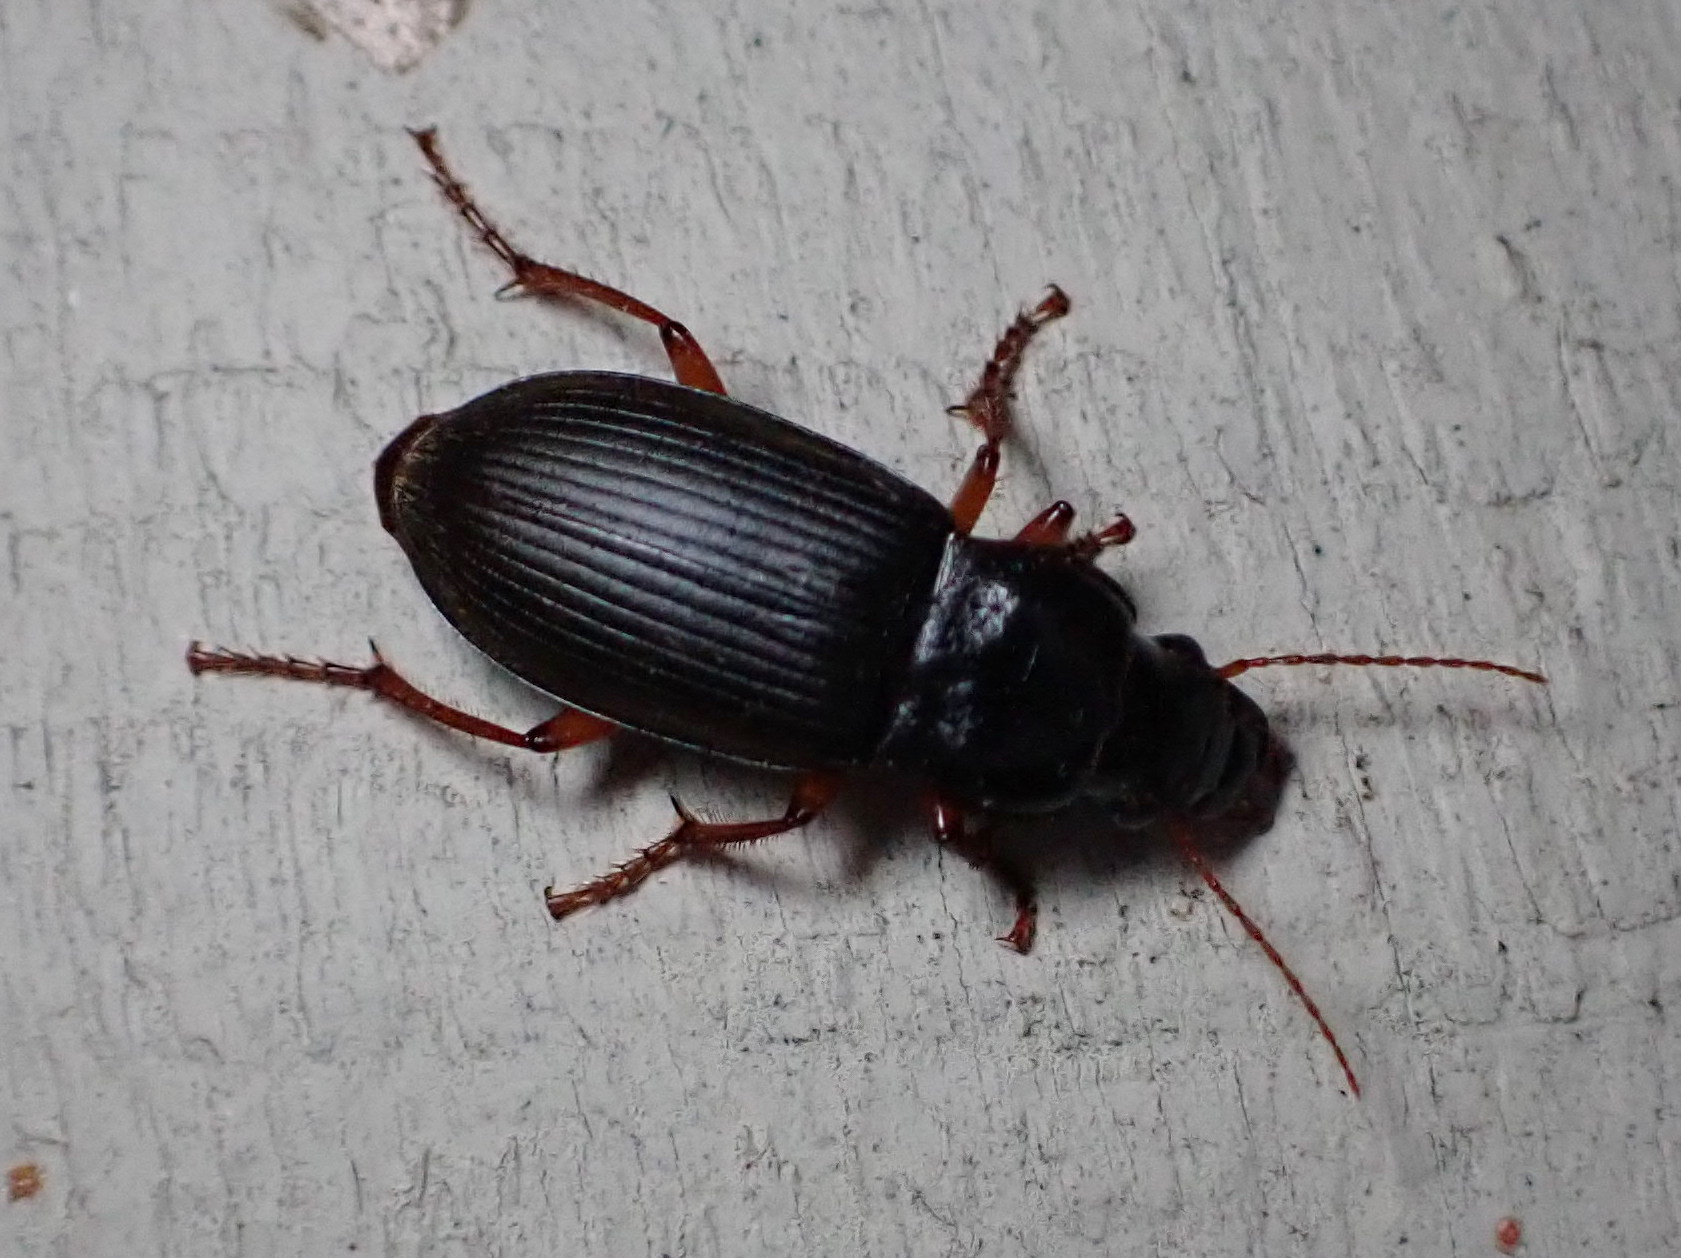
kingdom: Animalia
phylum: Arthropoda
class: Insecta
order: Coleoptera
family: Carabidae
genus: Harpalus
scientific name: Harpalus rufipes
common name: Strawberry harp ground beetle
